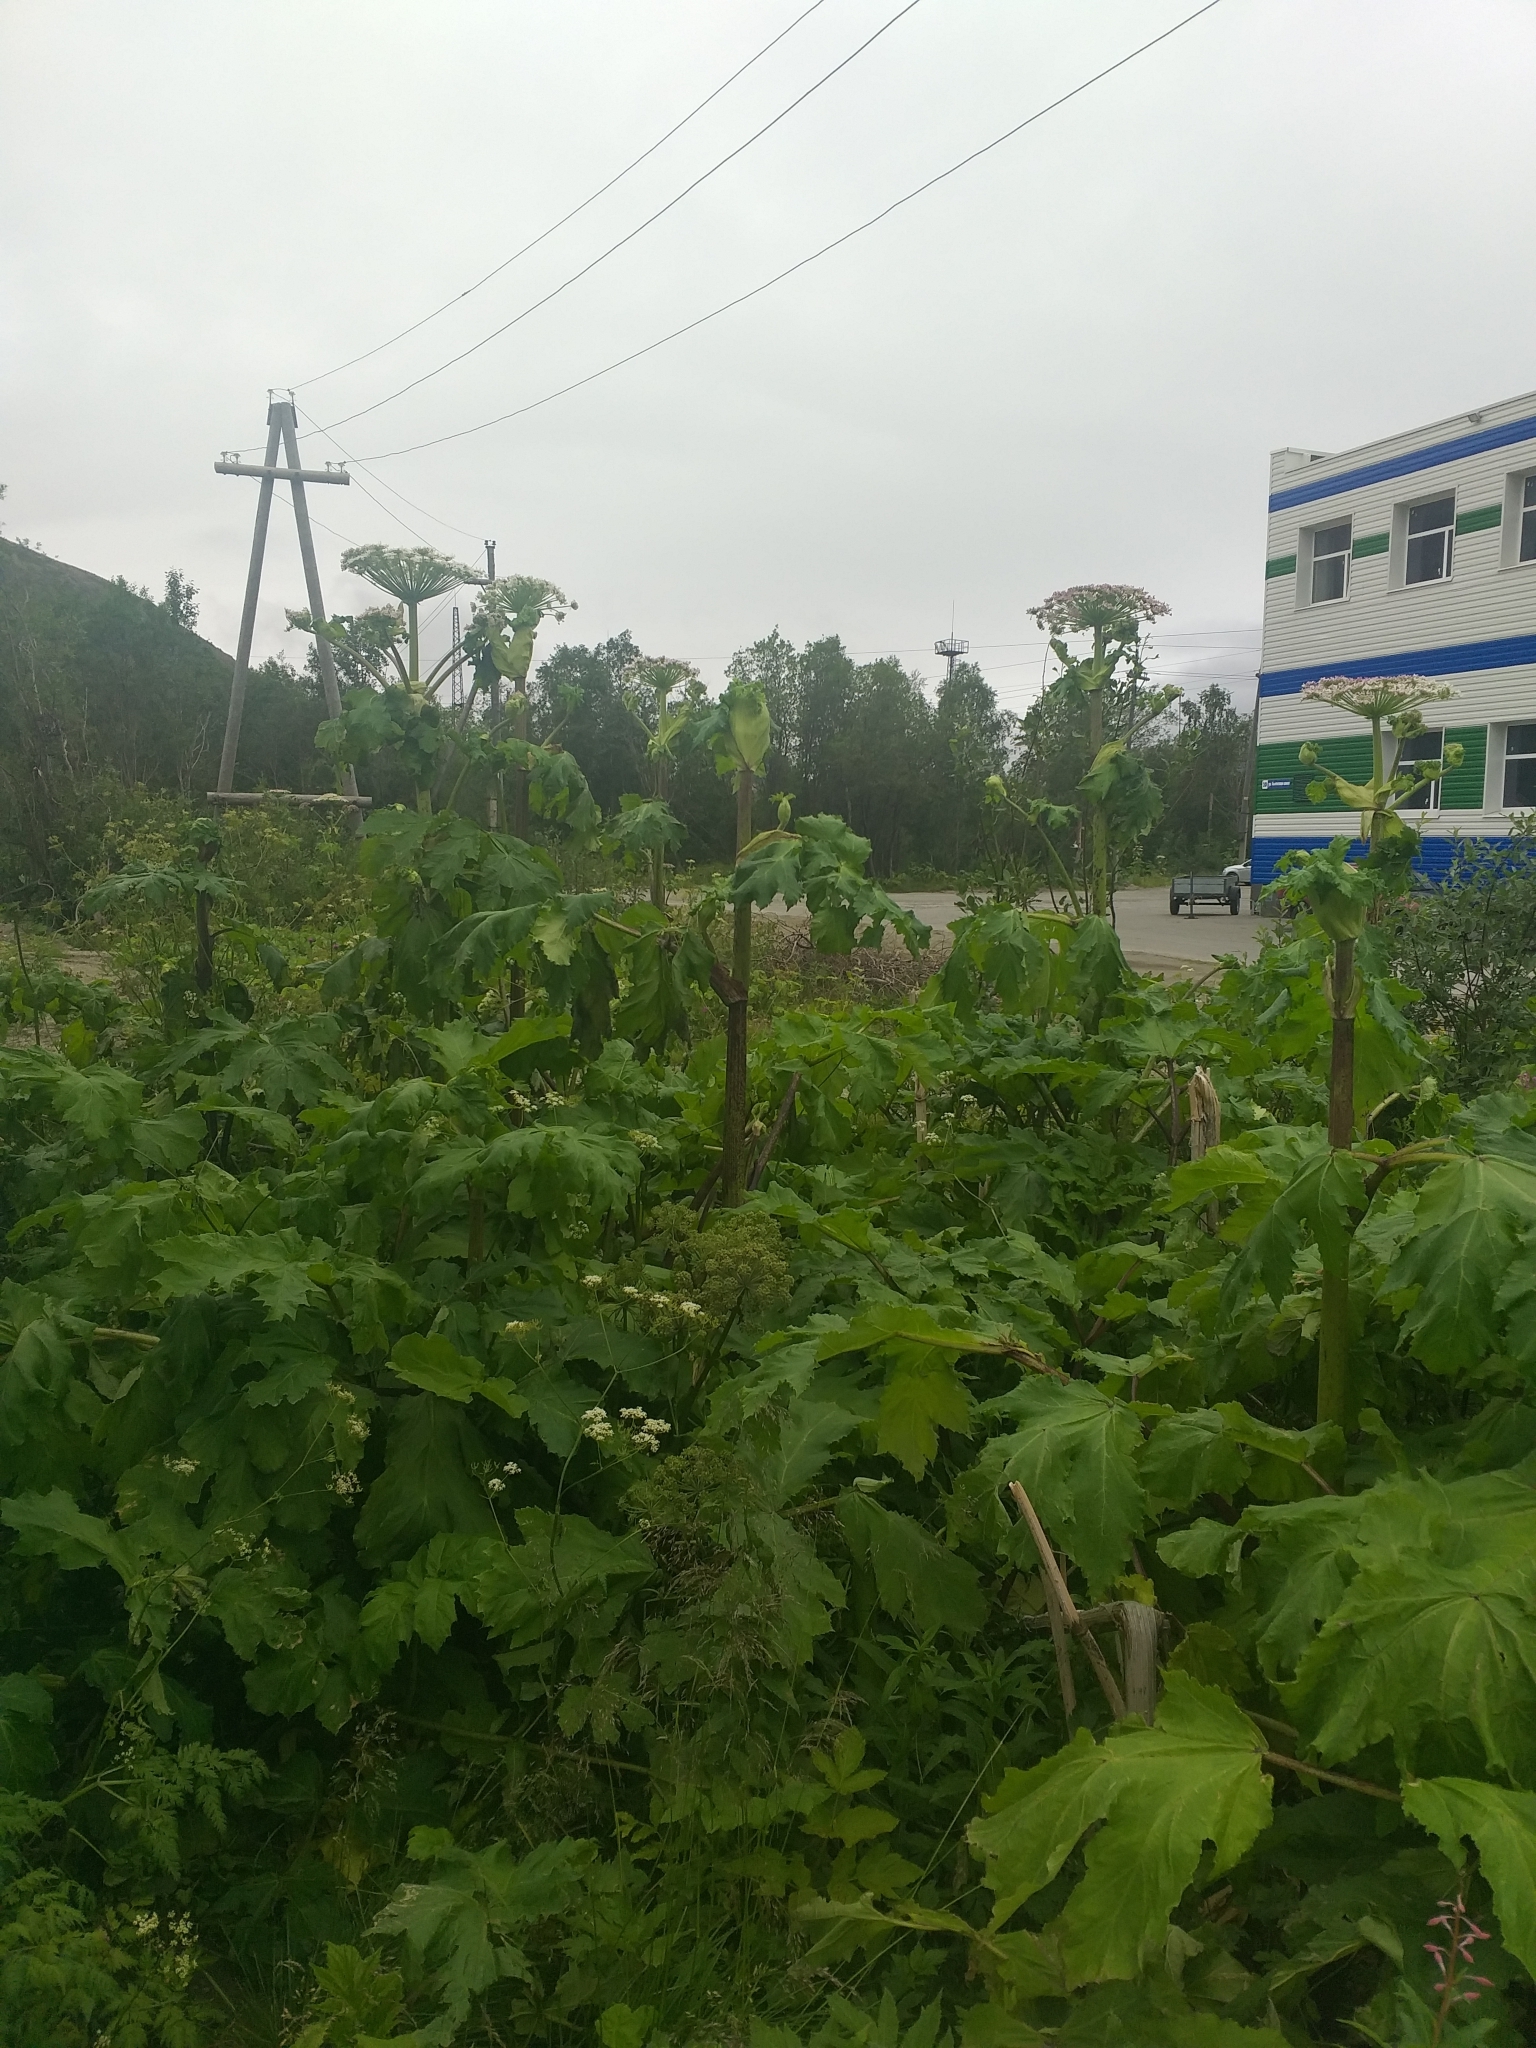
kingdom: Plantae
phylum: Tracheophyta
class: Magnoliopsida
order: Apiales
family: Apiaceae
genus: Heracleum
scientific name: Heracleum sosnowskyi
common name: Sosnowsky's hogweed
